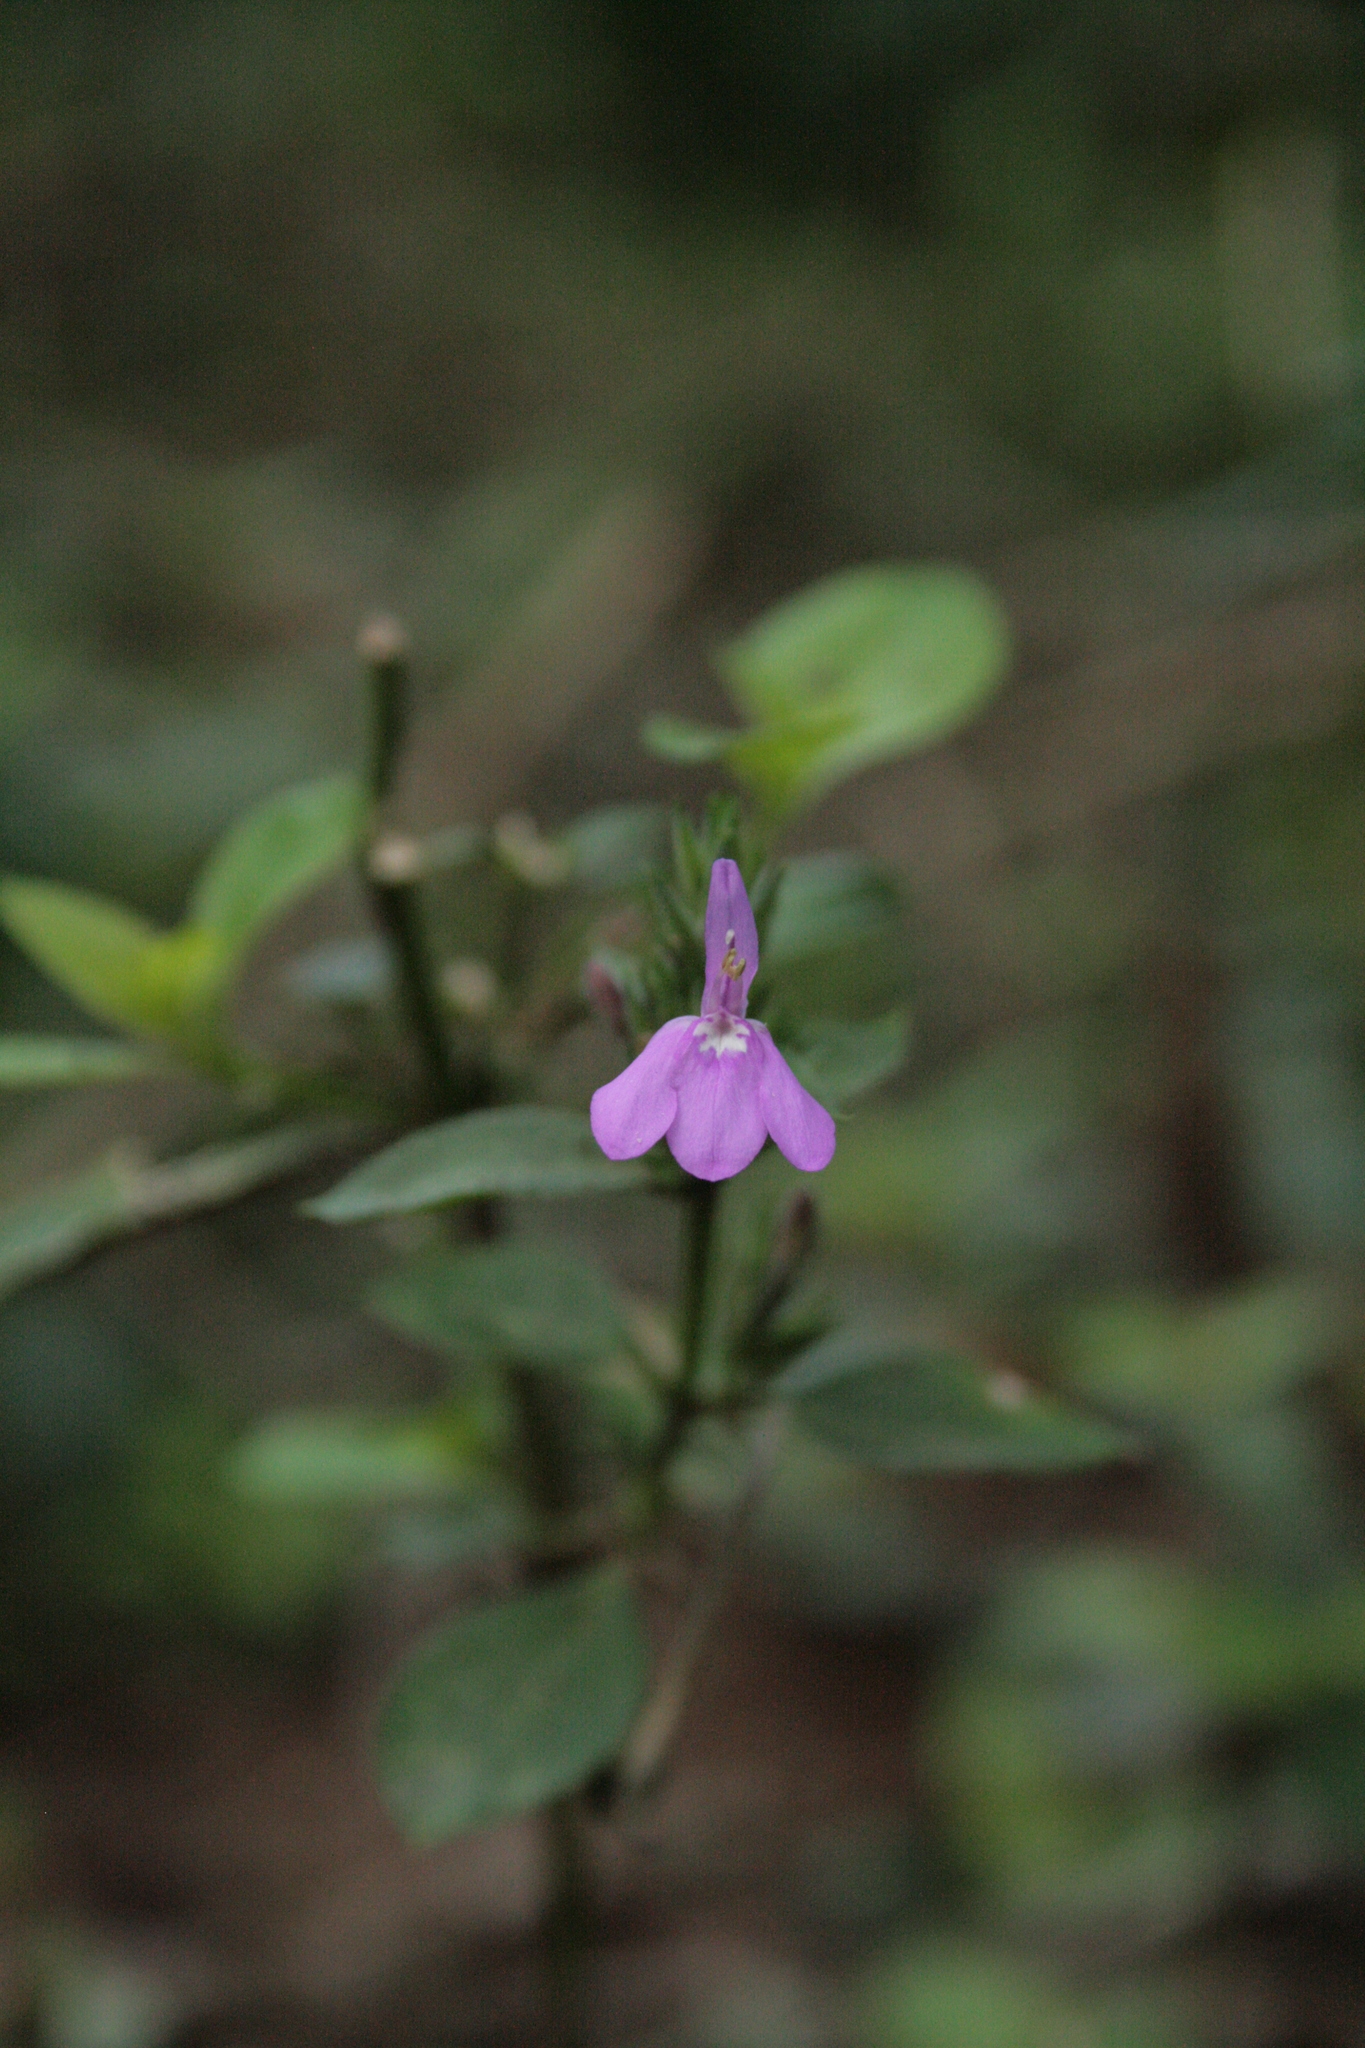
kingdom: Plantae
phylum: Tracheophyta
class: Magnoliopsida
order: Lamiales
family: Acanthaceae
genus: Justicia
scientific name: Justicia goudotii
